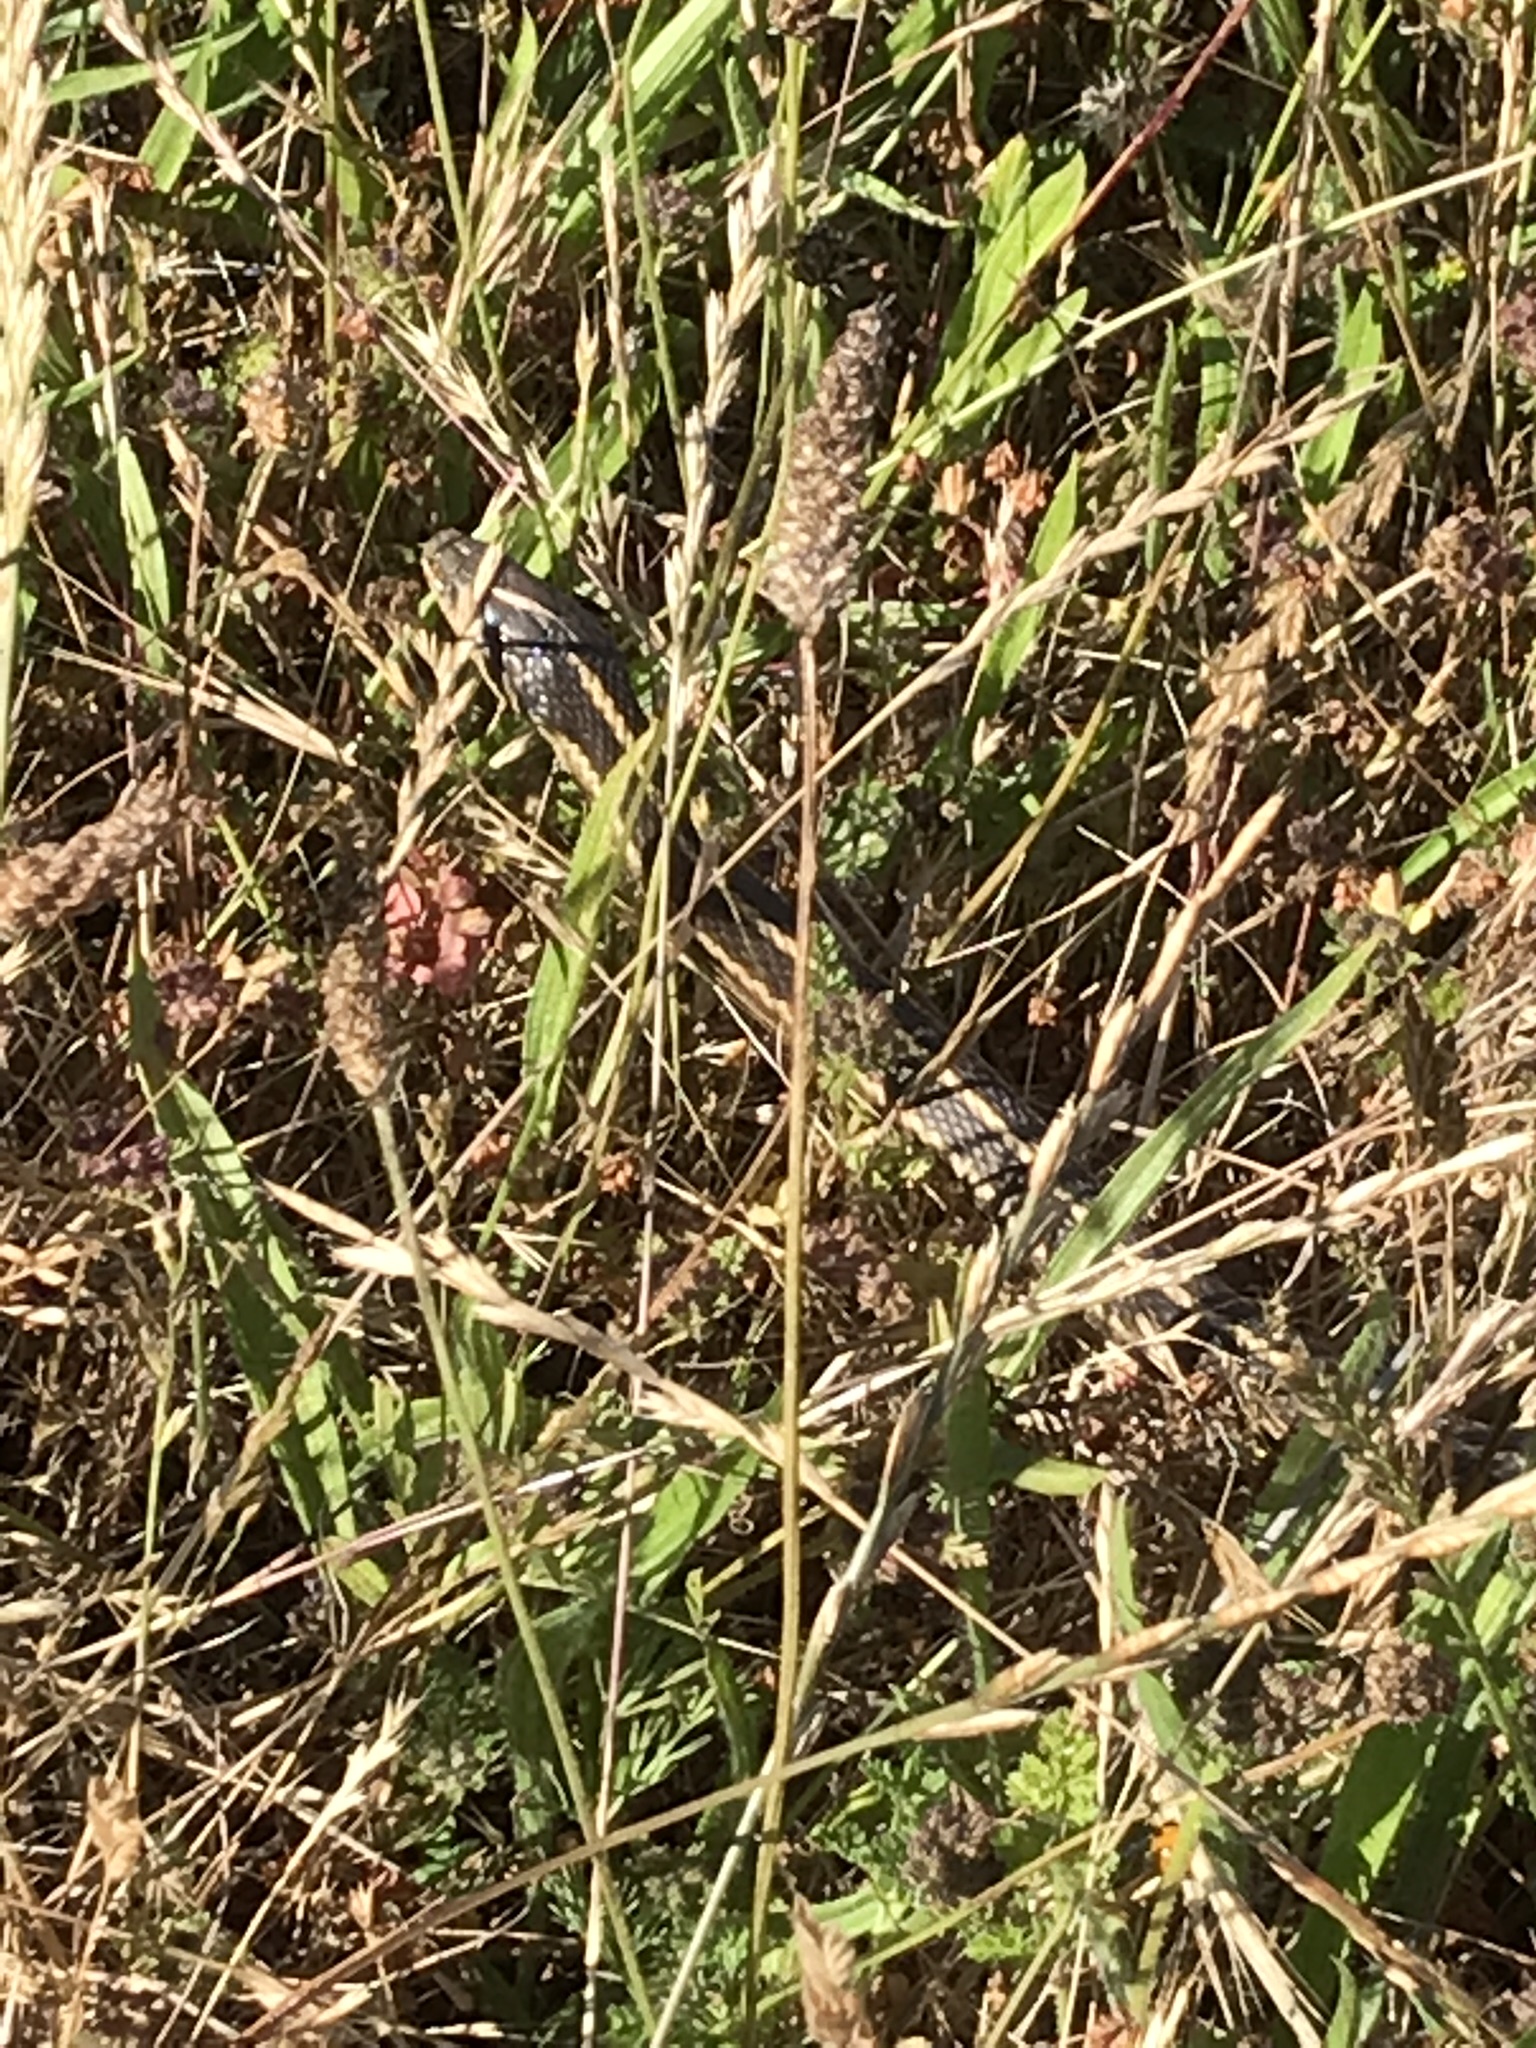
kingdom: Animalia
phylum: Chordata
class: Squamata
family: Colubridae
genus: Thamnophis
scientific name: Thamnophis elegans
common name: Western terrestrial garter snake
